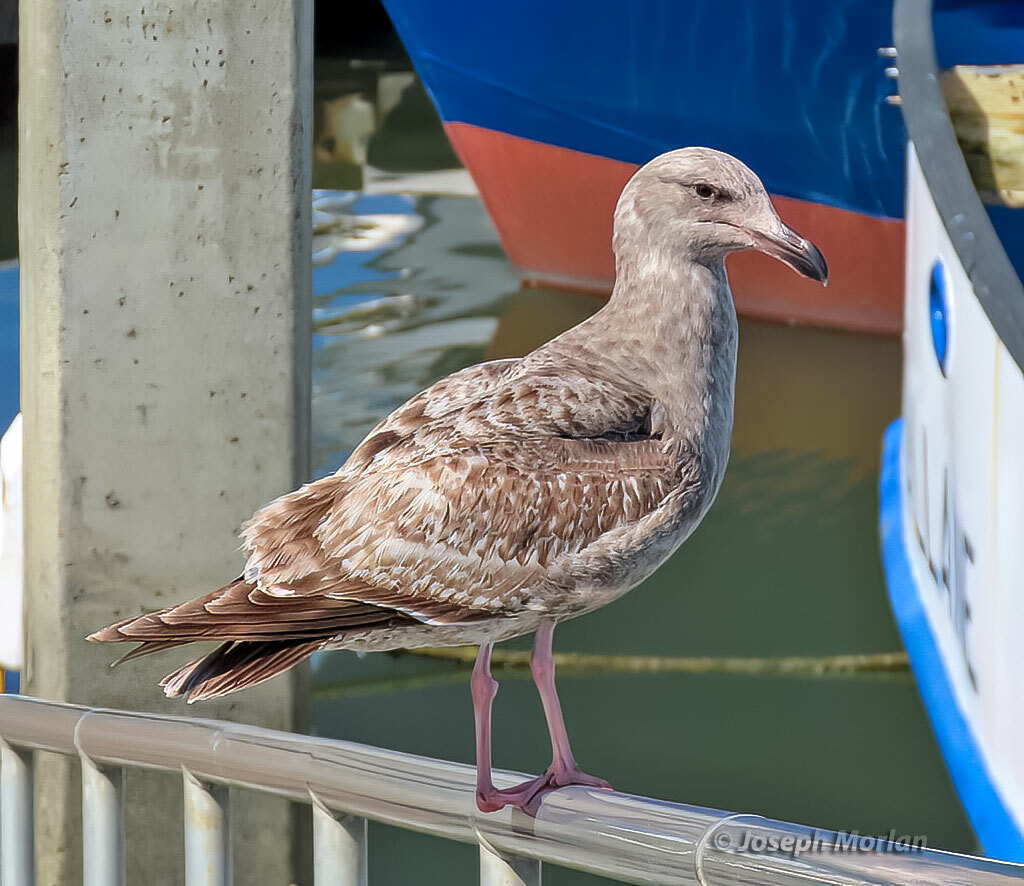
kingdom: Animalia
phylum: Chordata
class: Aves
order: Charadriiformes
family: Laridae
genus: Larus
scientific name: Larus occidentalis
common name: Western gull
